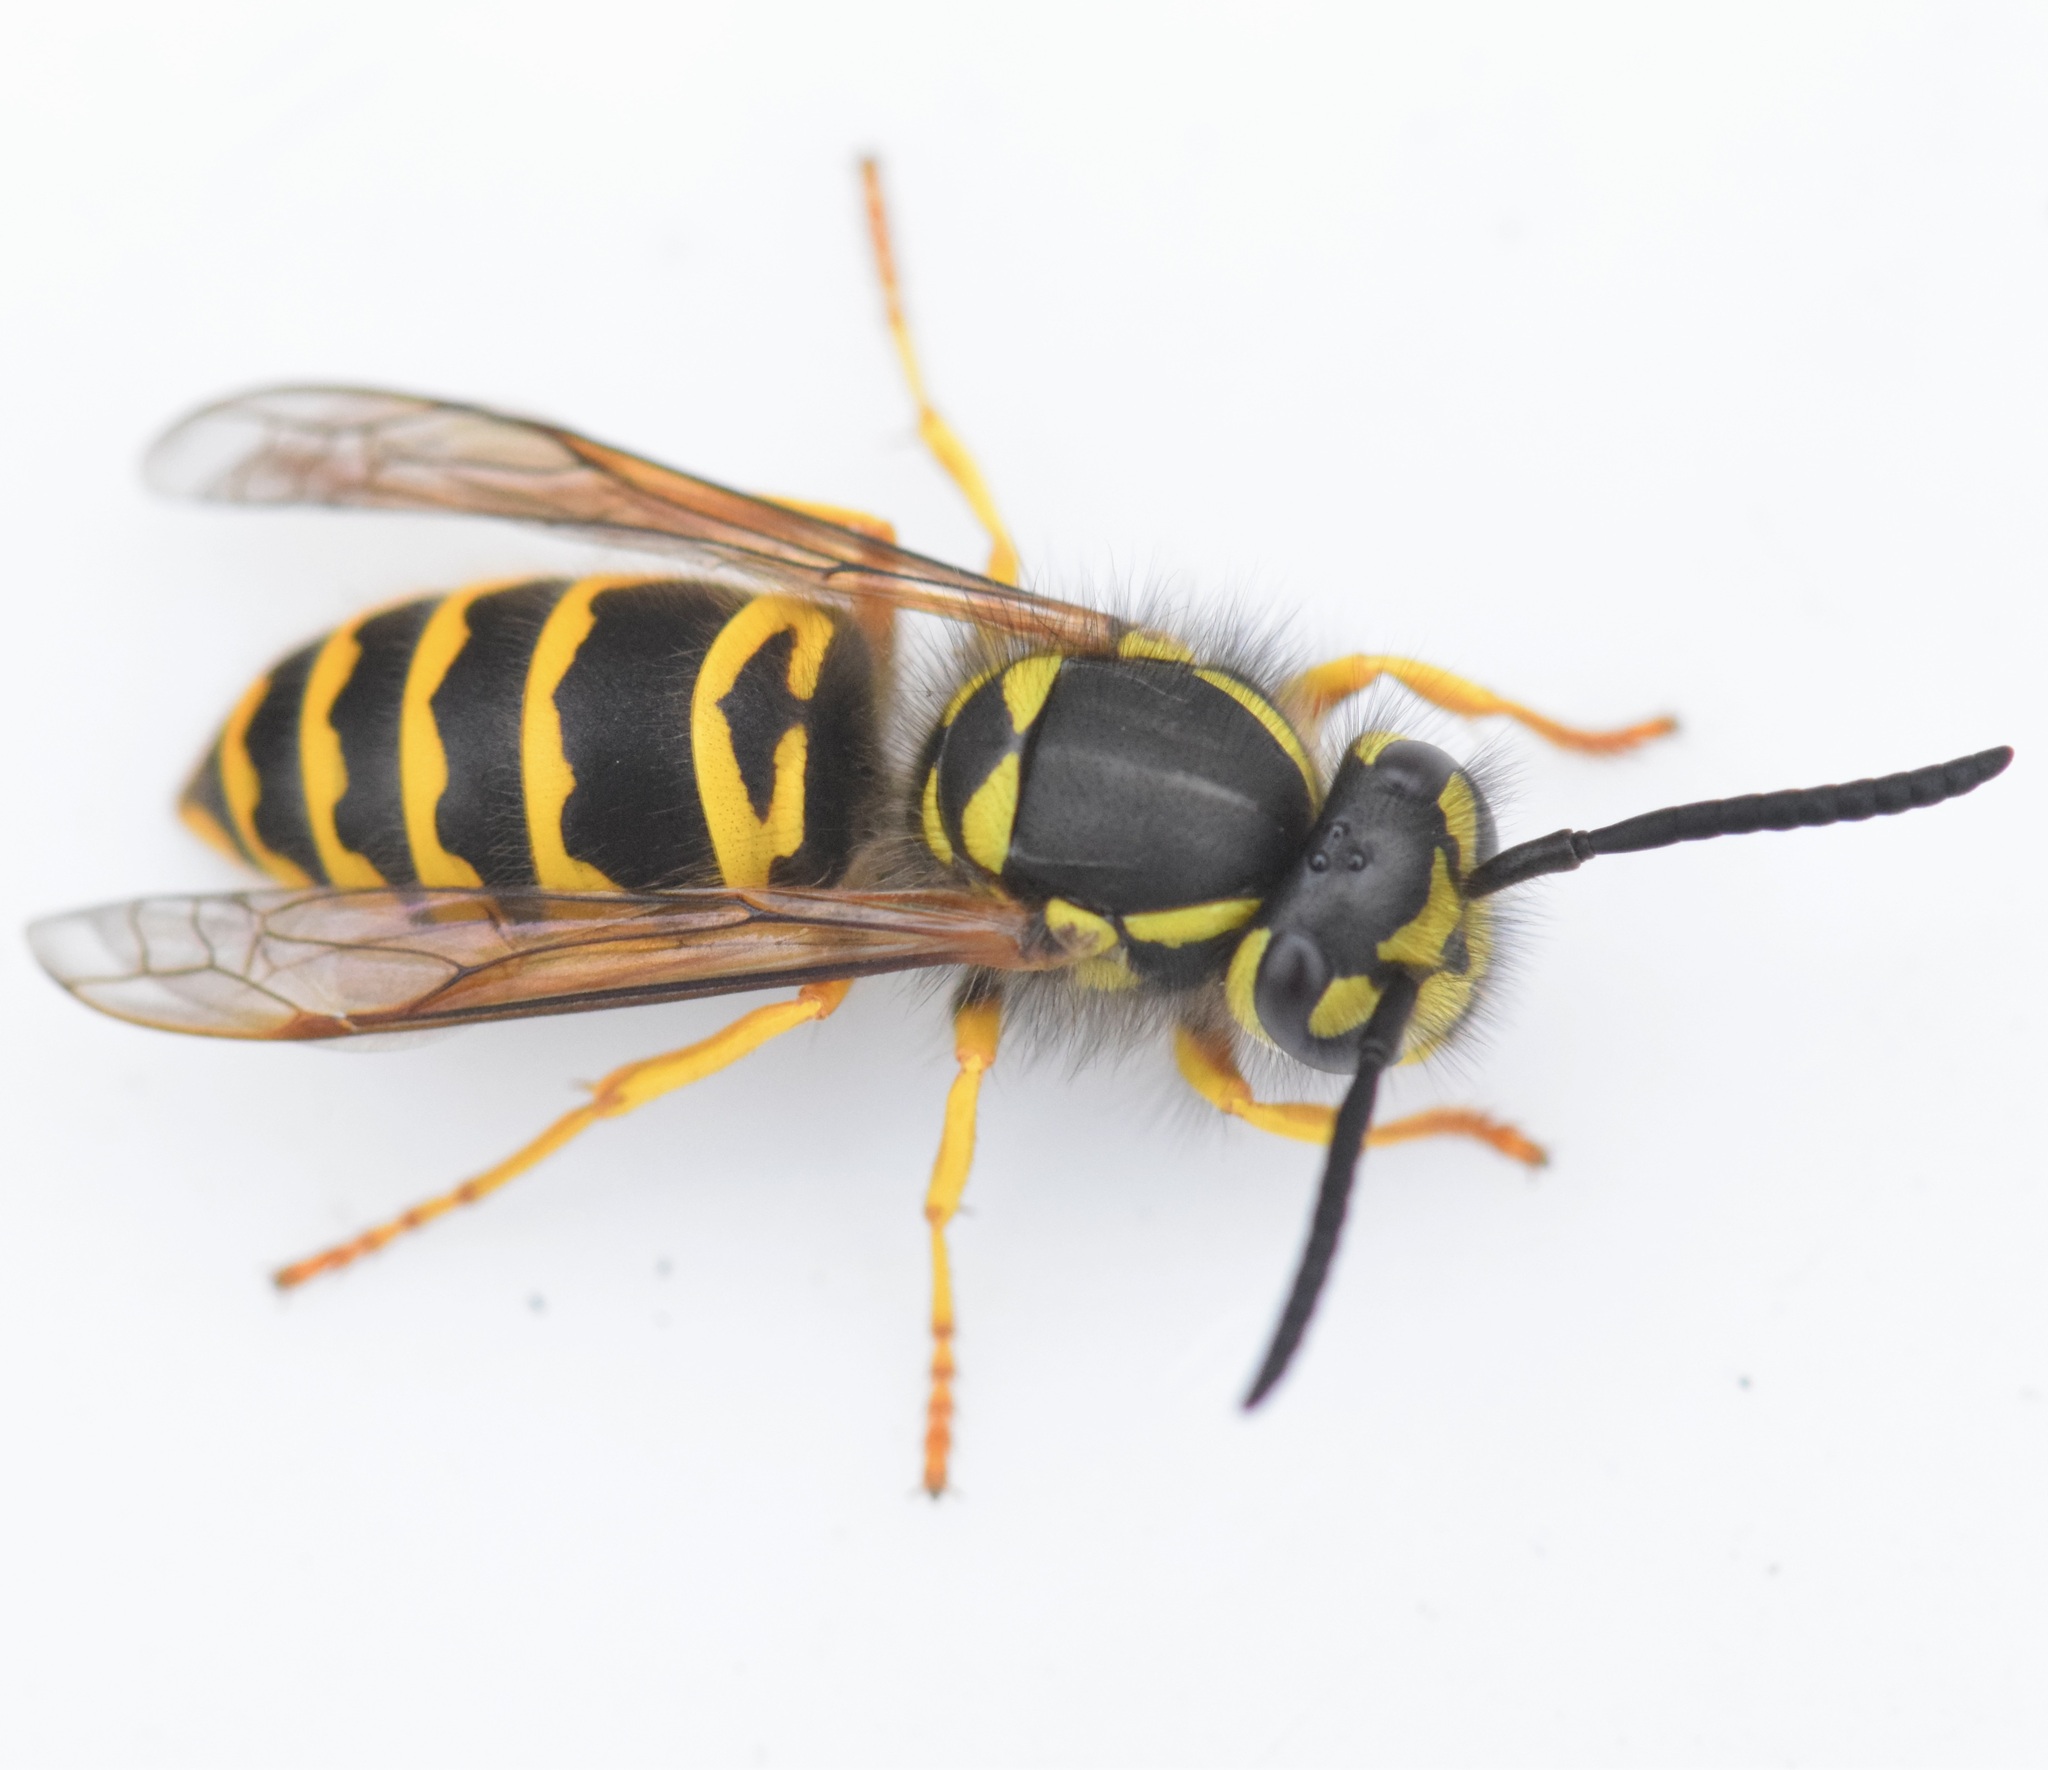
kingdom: Animalia
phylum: Arthropoda
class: Insecta
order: Hymenoptera
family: Vespidae
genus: Vespula
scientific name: Vespula maculifrons
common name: Eastern yellowjacket
